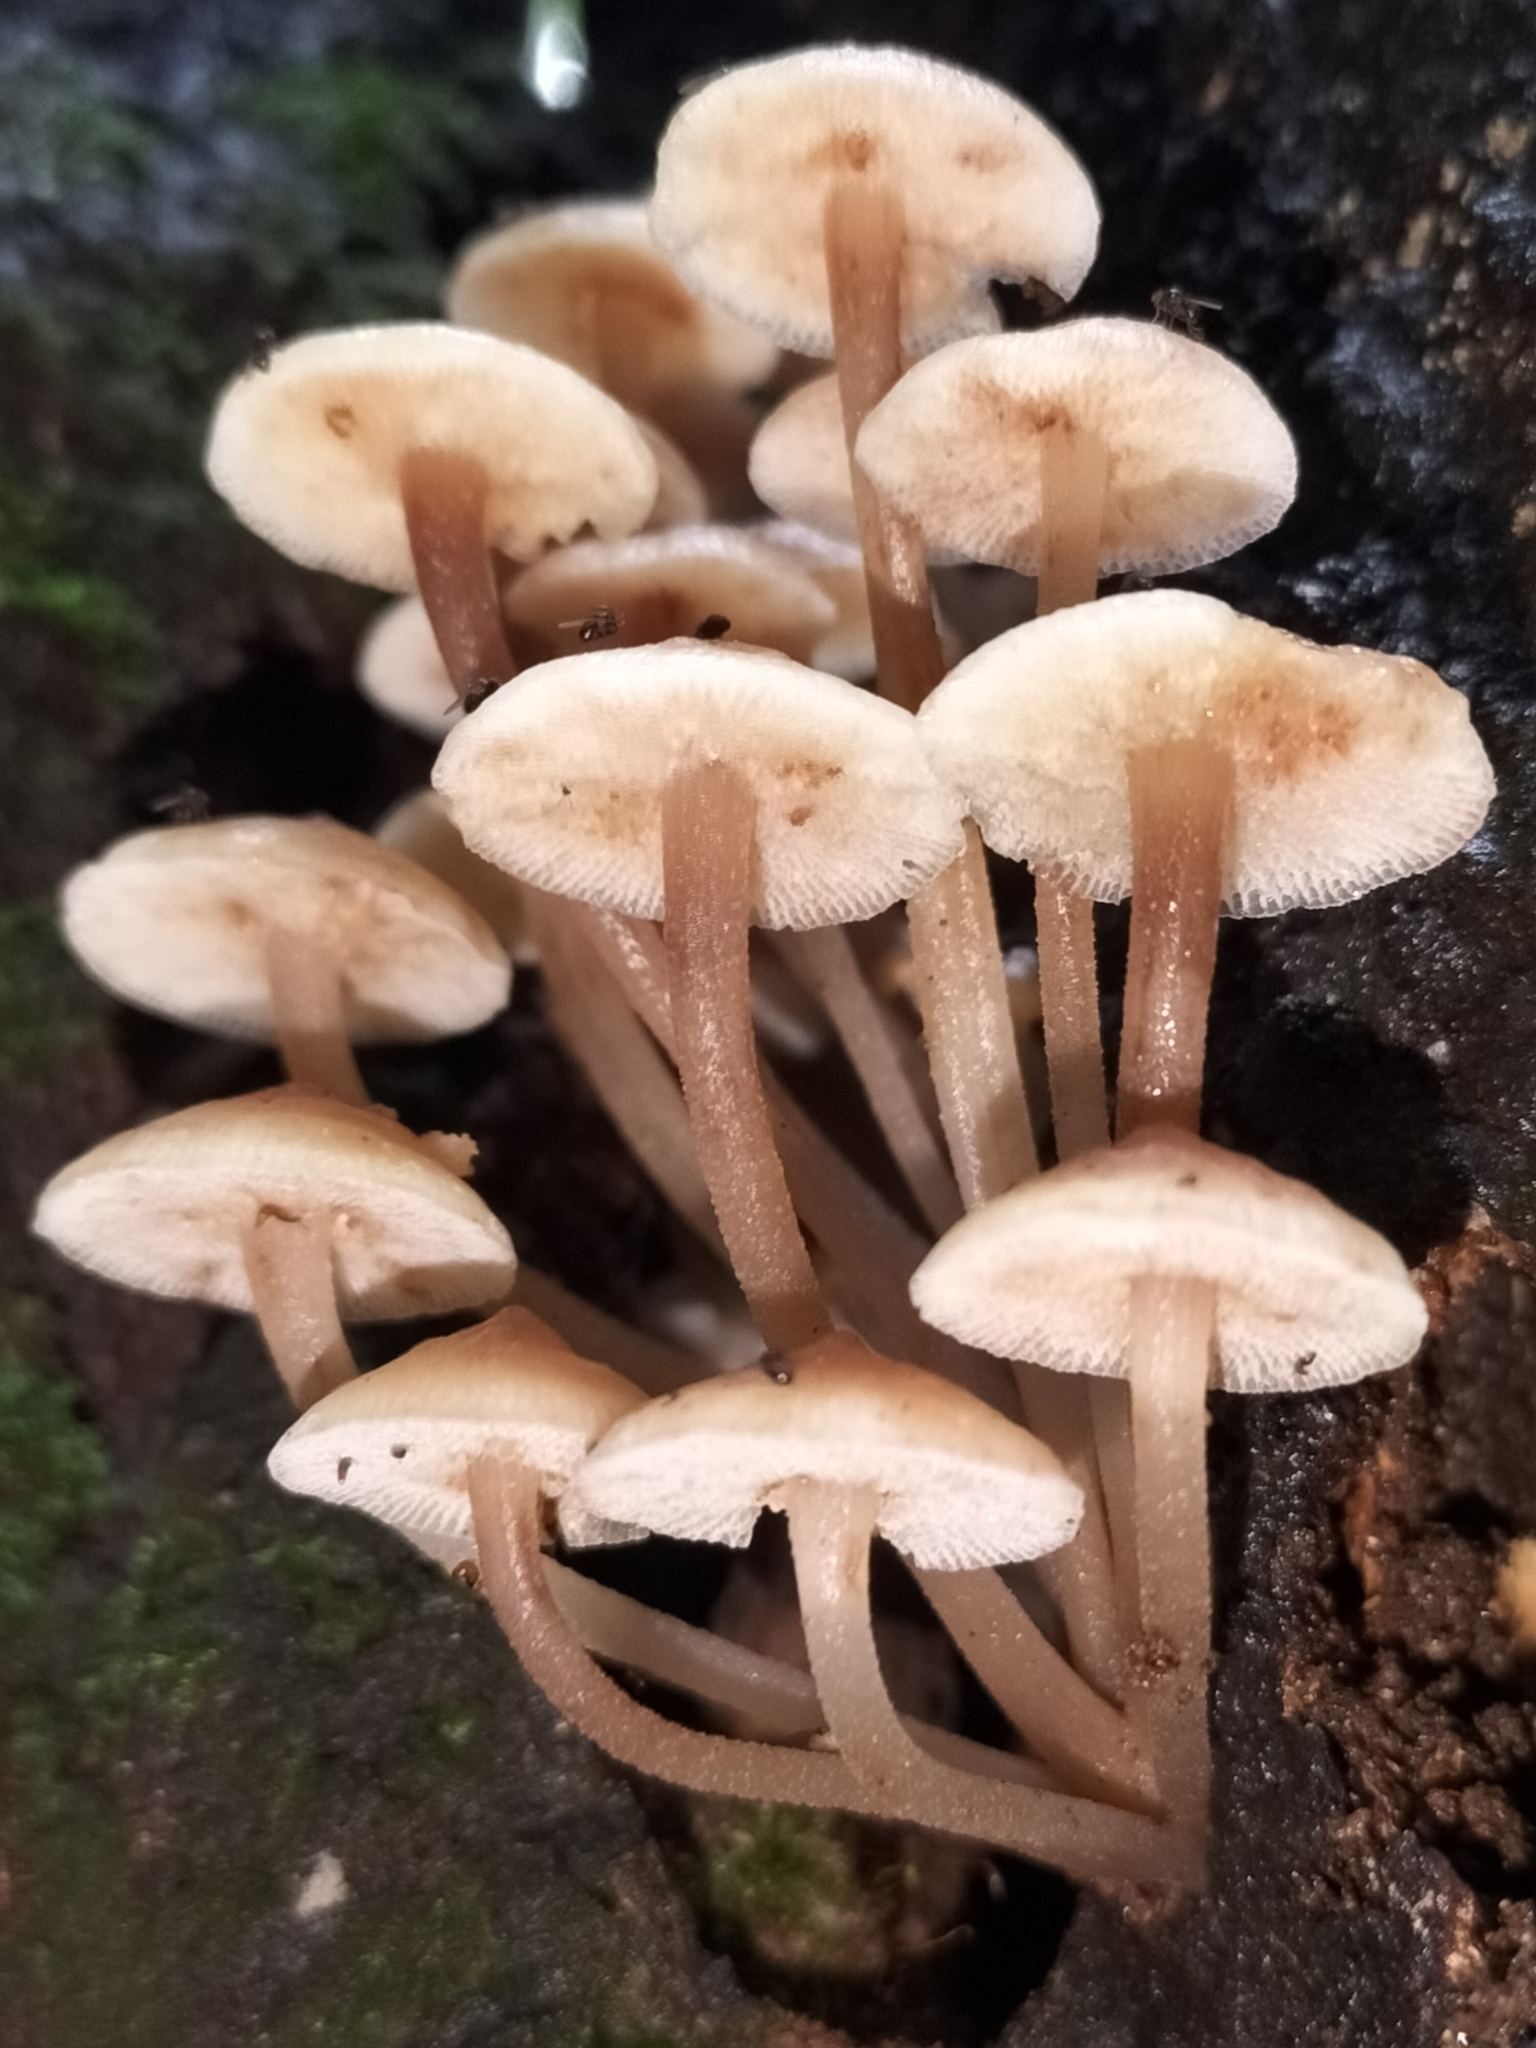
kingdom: Fungi
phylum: Basidiomycota
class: Agaricomycetes
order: Agaricales
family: Mycenaceae
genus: Filoboletus
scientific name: Filoboletus manipularis
